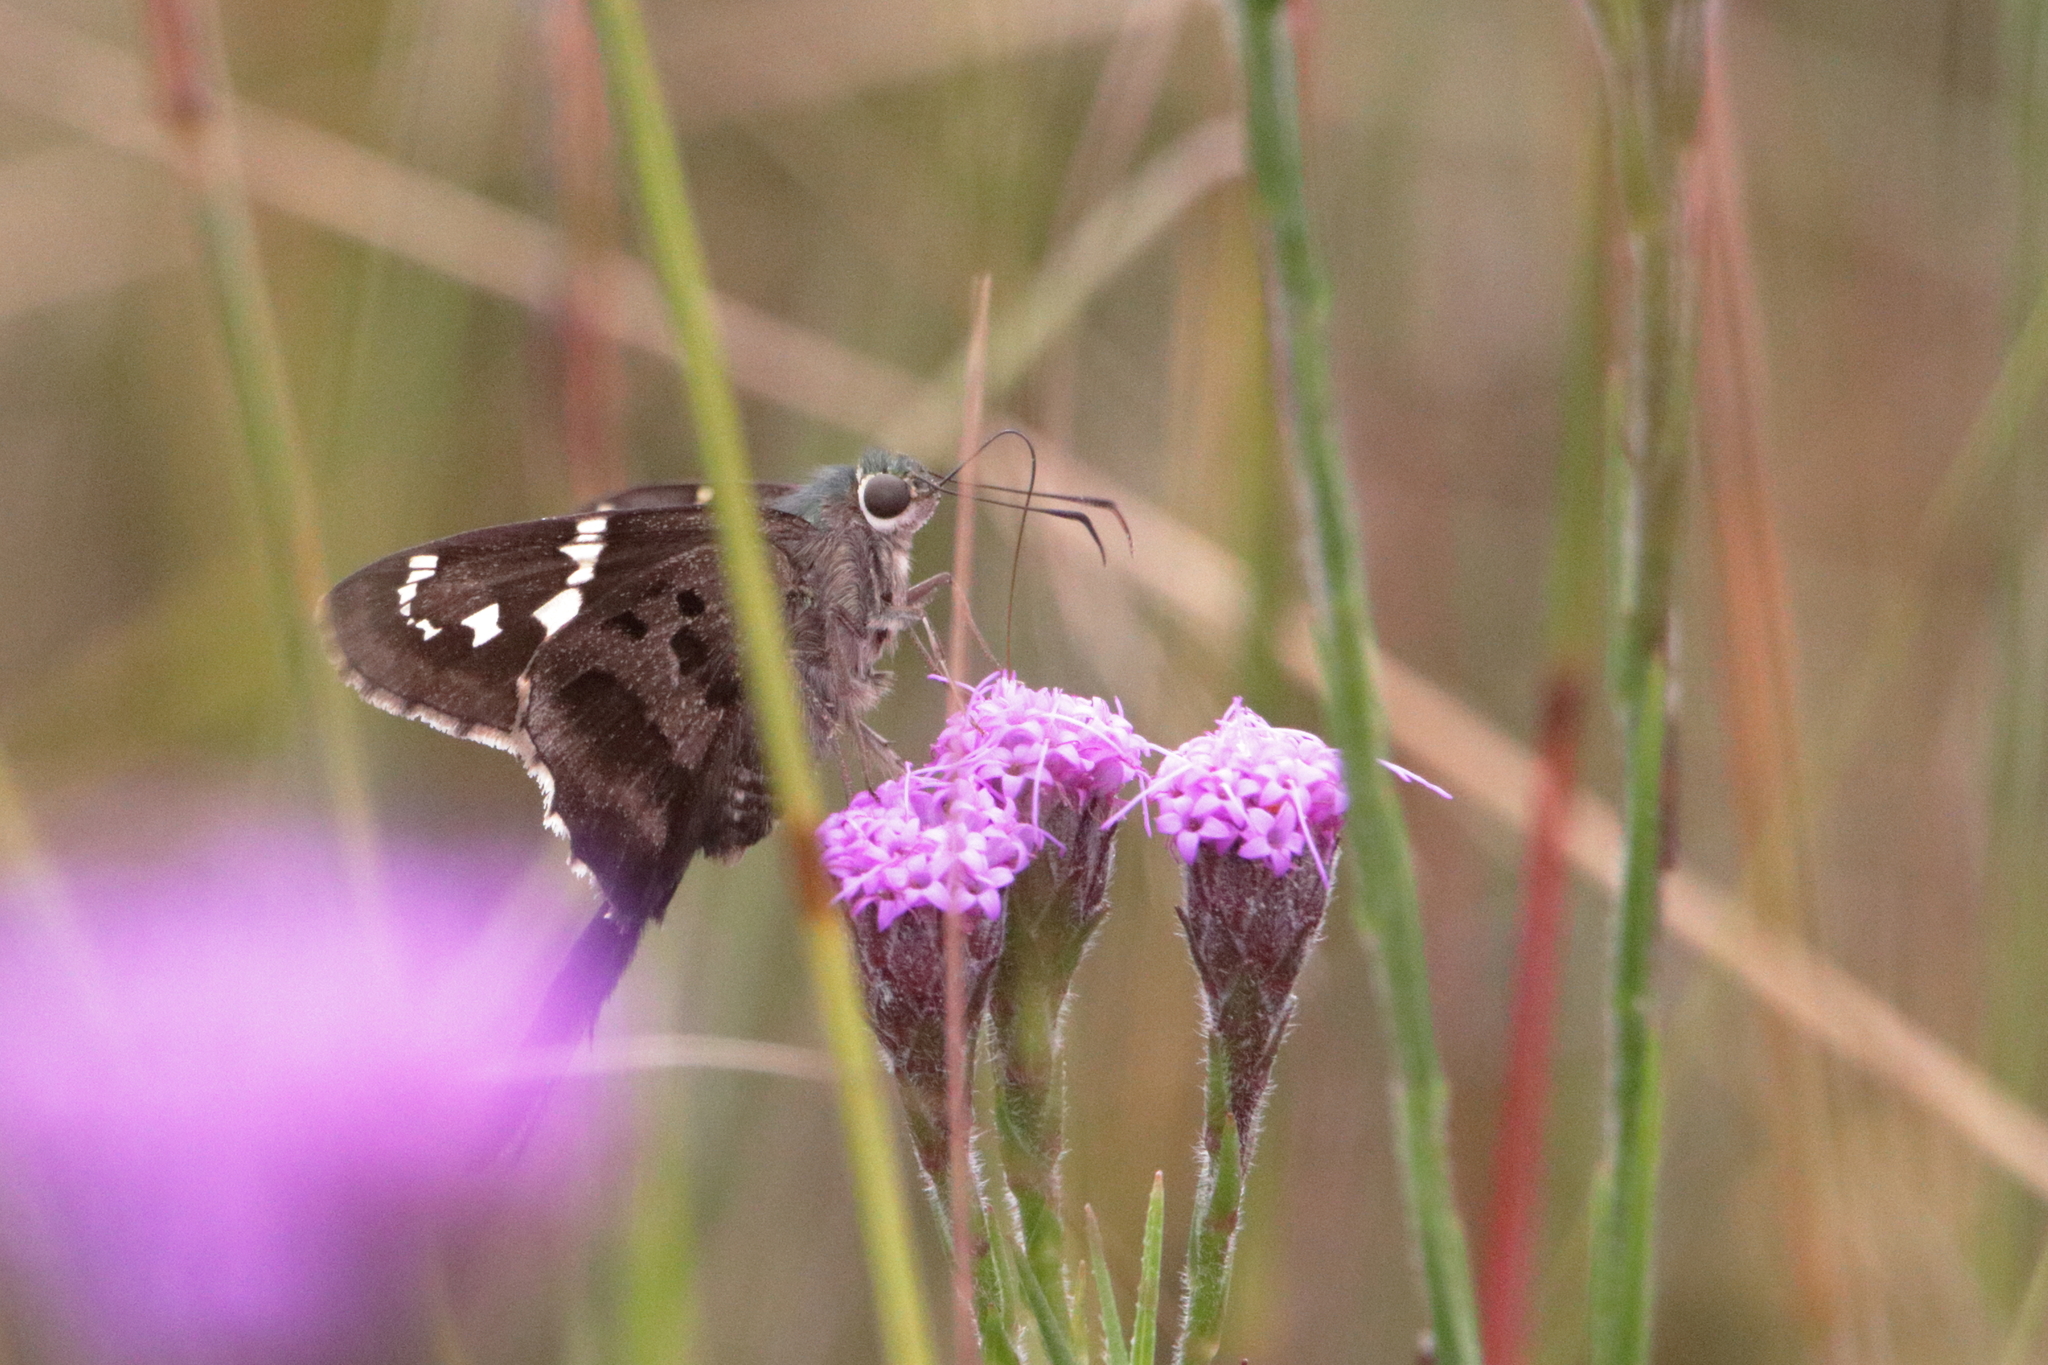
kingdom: Animalia
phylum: Arthropoda
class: Insecta
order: Lepidoptera
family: Hesperiidae
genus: Urbanus
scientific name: Urbanus proteus
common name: Long-tailed skipper
